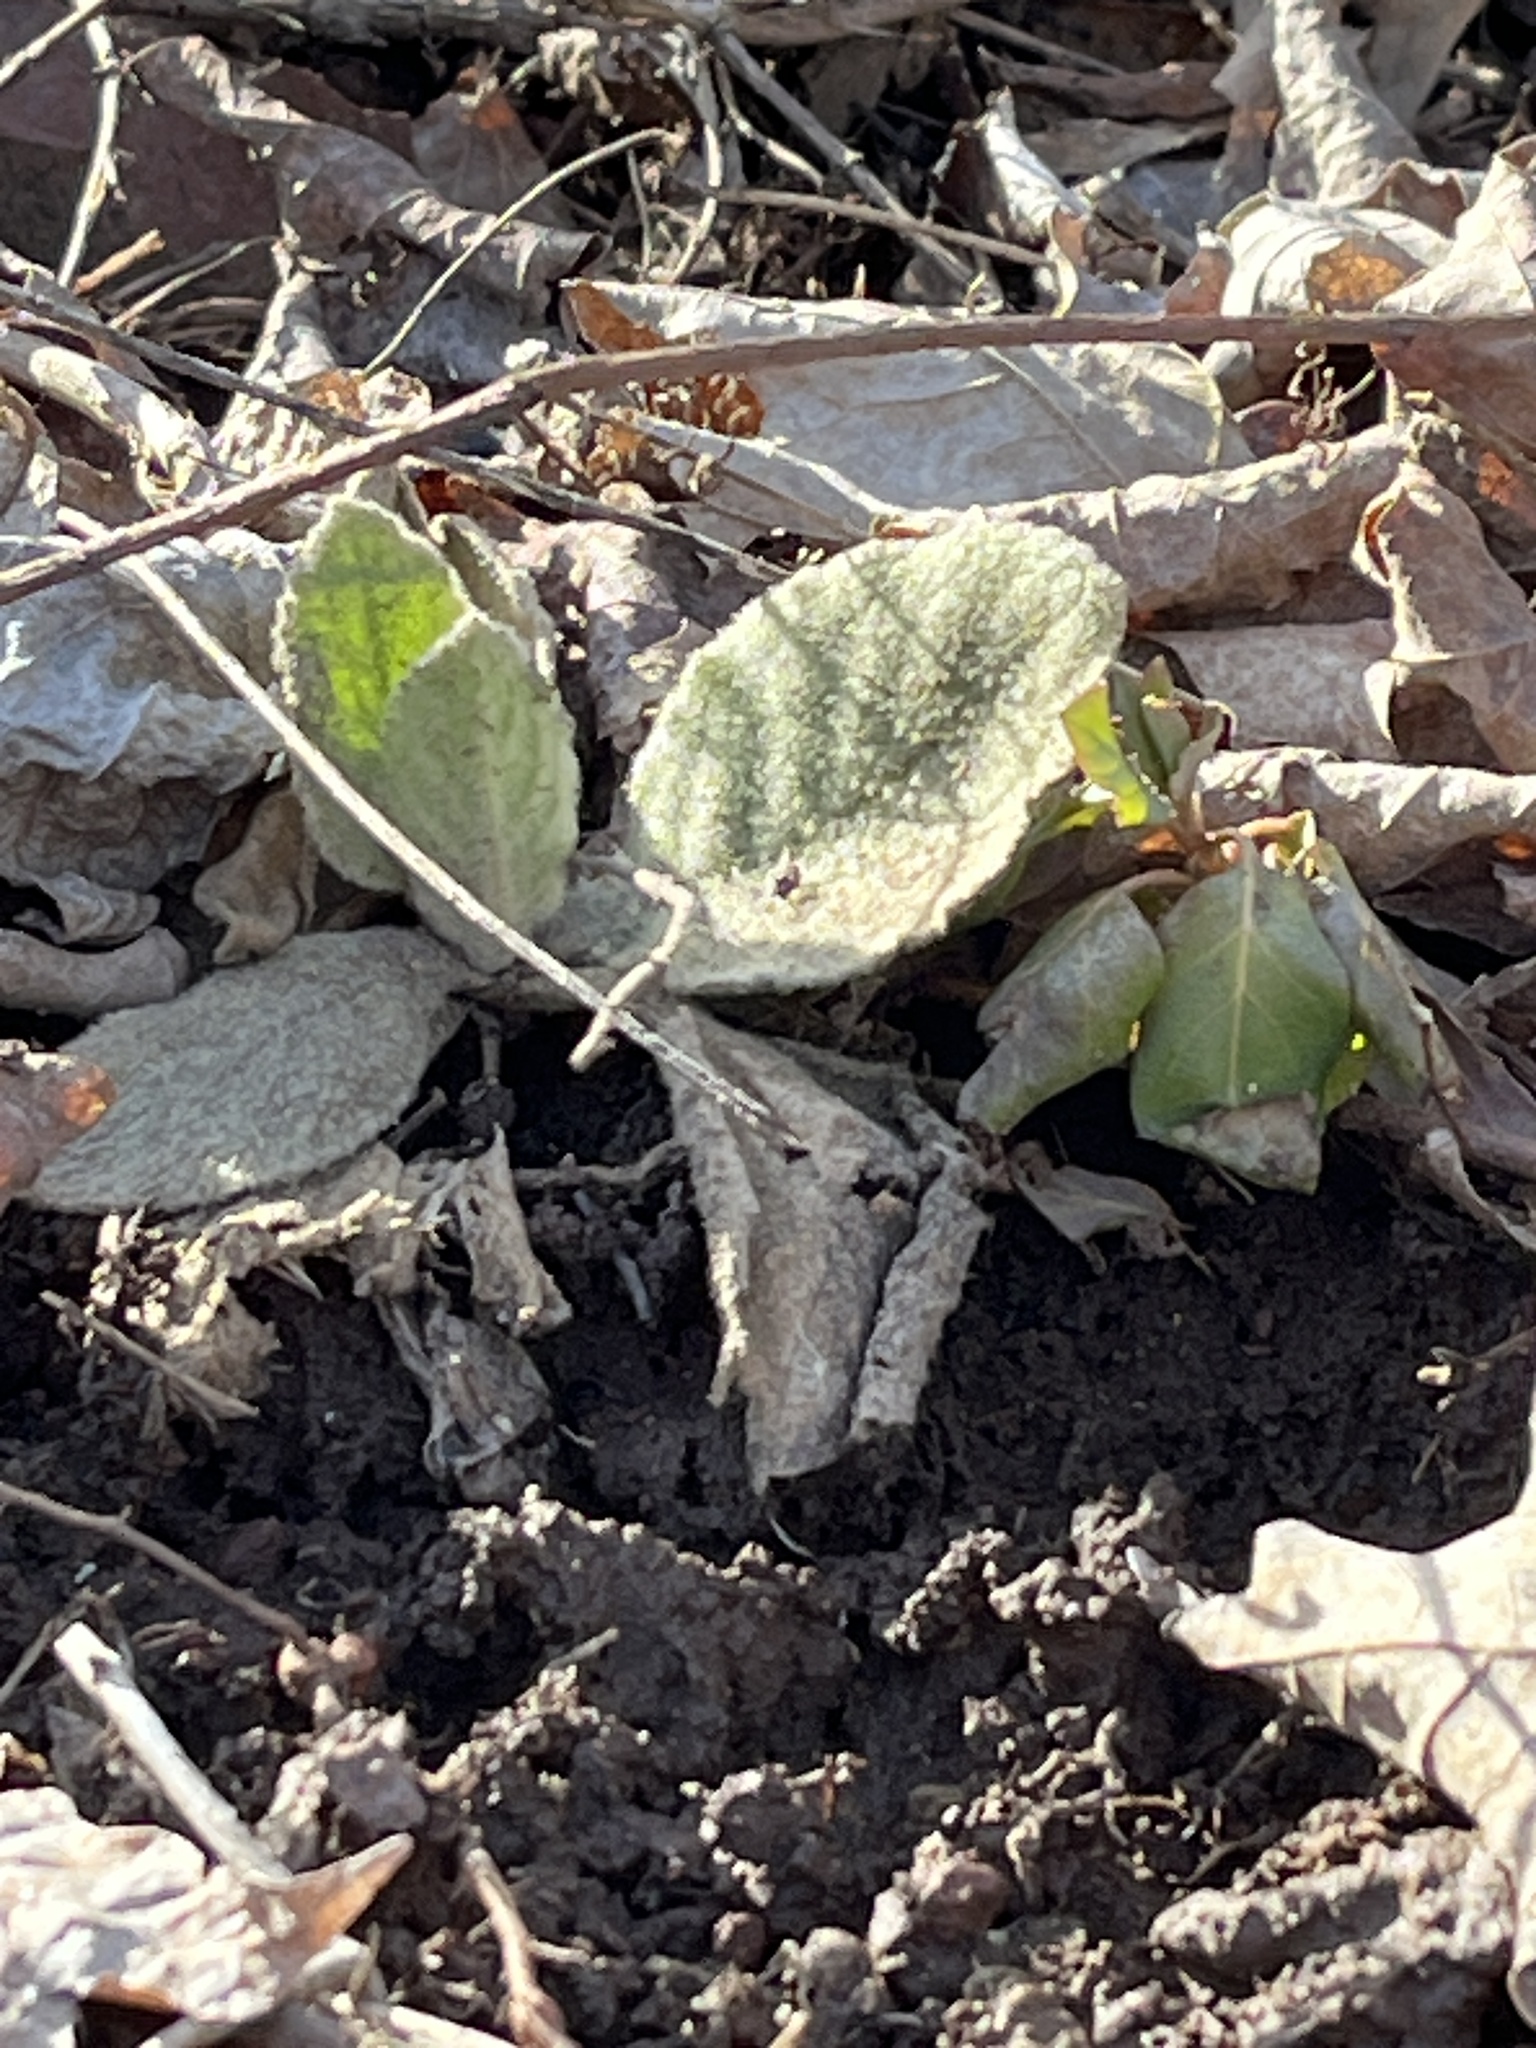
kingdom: Plantae
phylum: Tracheophyta
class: Magnoliopsida
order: Lamiales
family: Scrophulariaceae
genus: Verbascum
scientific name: Verbascum thapsus
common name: Common mullein
